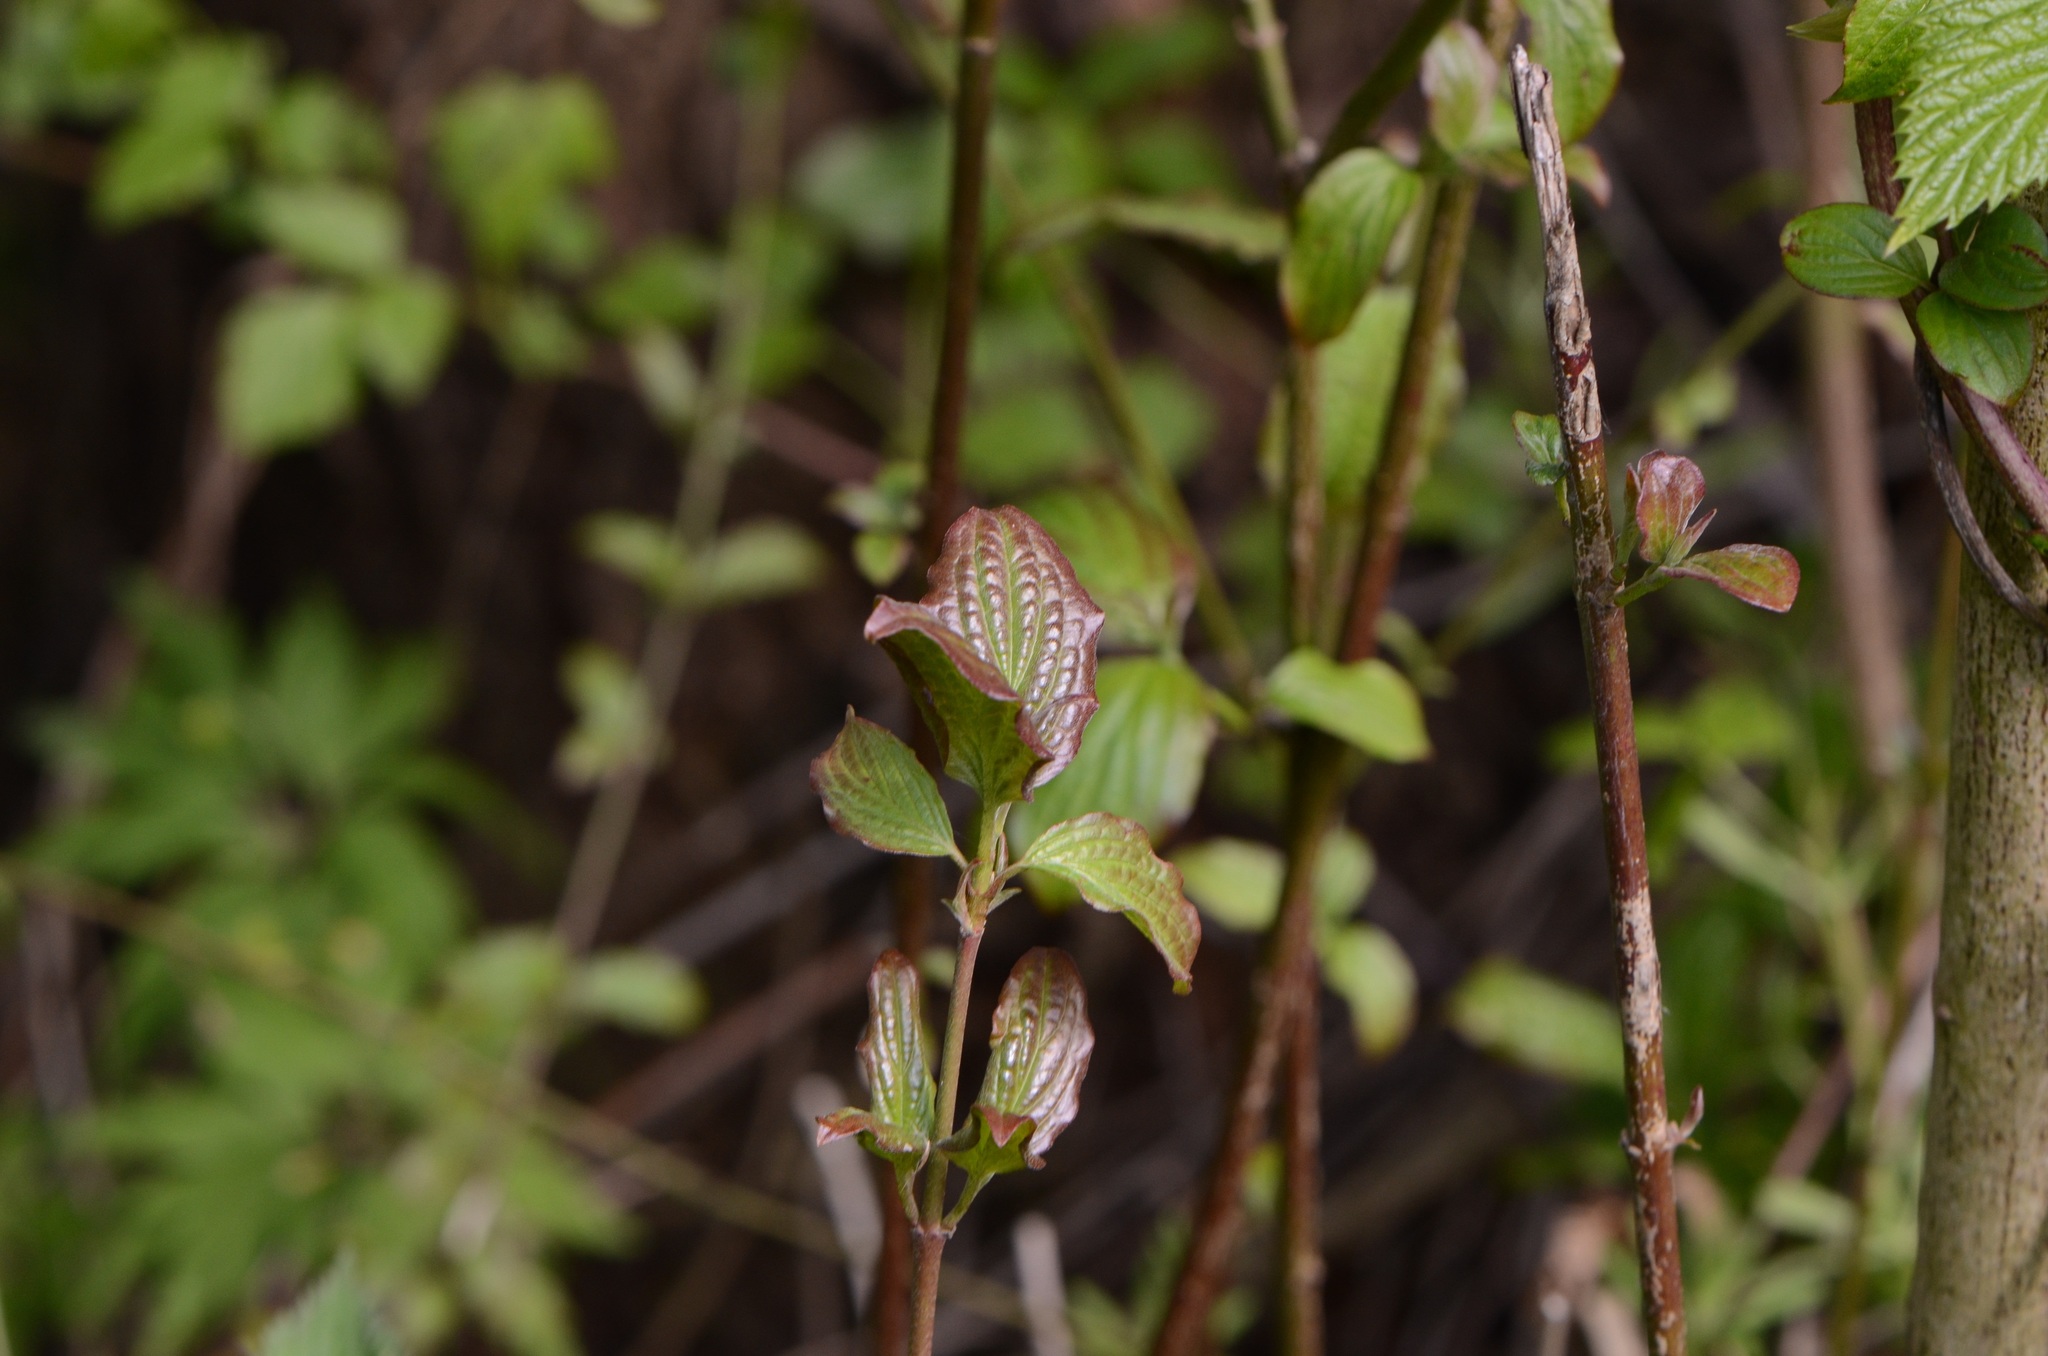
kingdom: Plantae
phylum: Tracheophyta
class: Magnoliopsida
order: Cornales
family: Cornaceae
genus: Cornus
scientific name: Cornus sanguinea
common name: Dogwood
